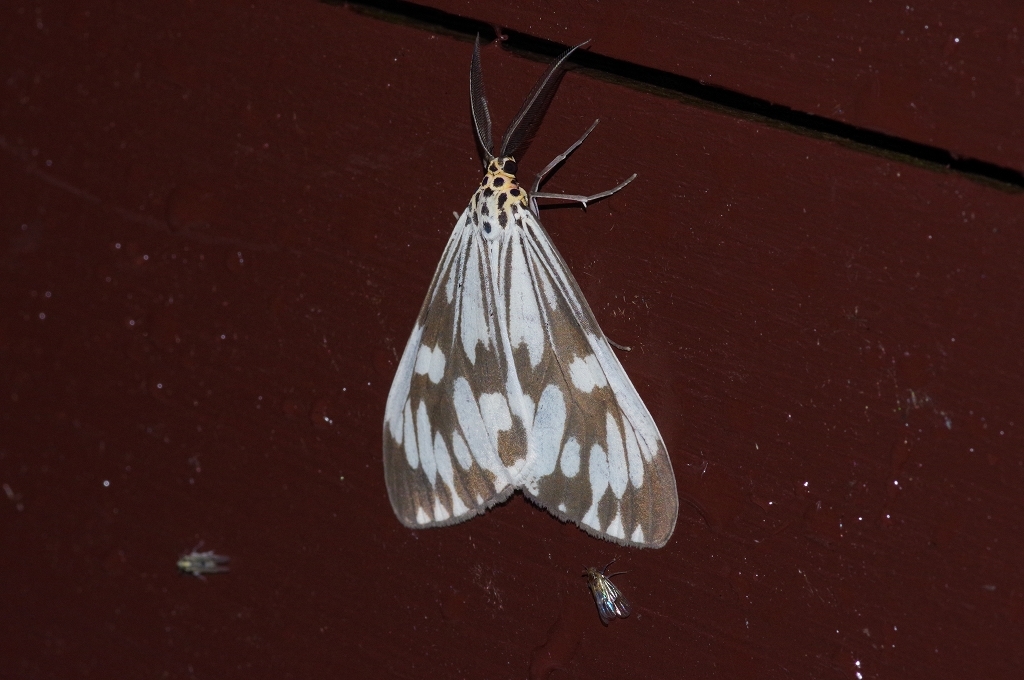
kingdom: Animalia
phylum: Arthropoda
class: Insecta
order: Lepidoptera
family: Erebidae
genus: Nyctemera
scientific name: Nyctemera adversata
